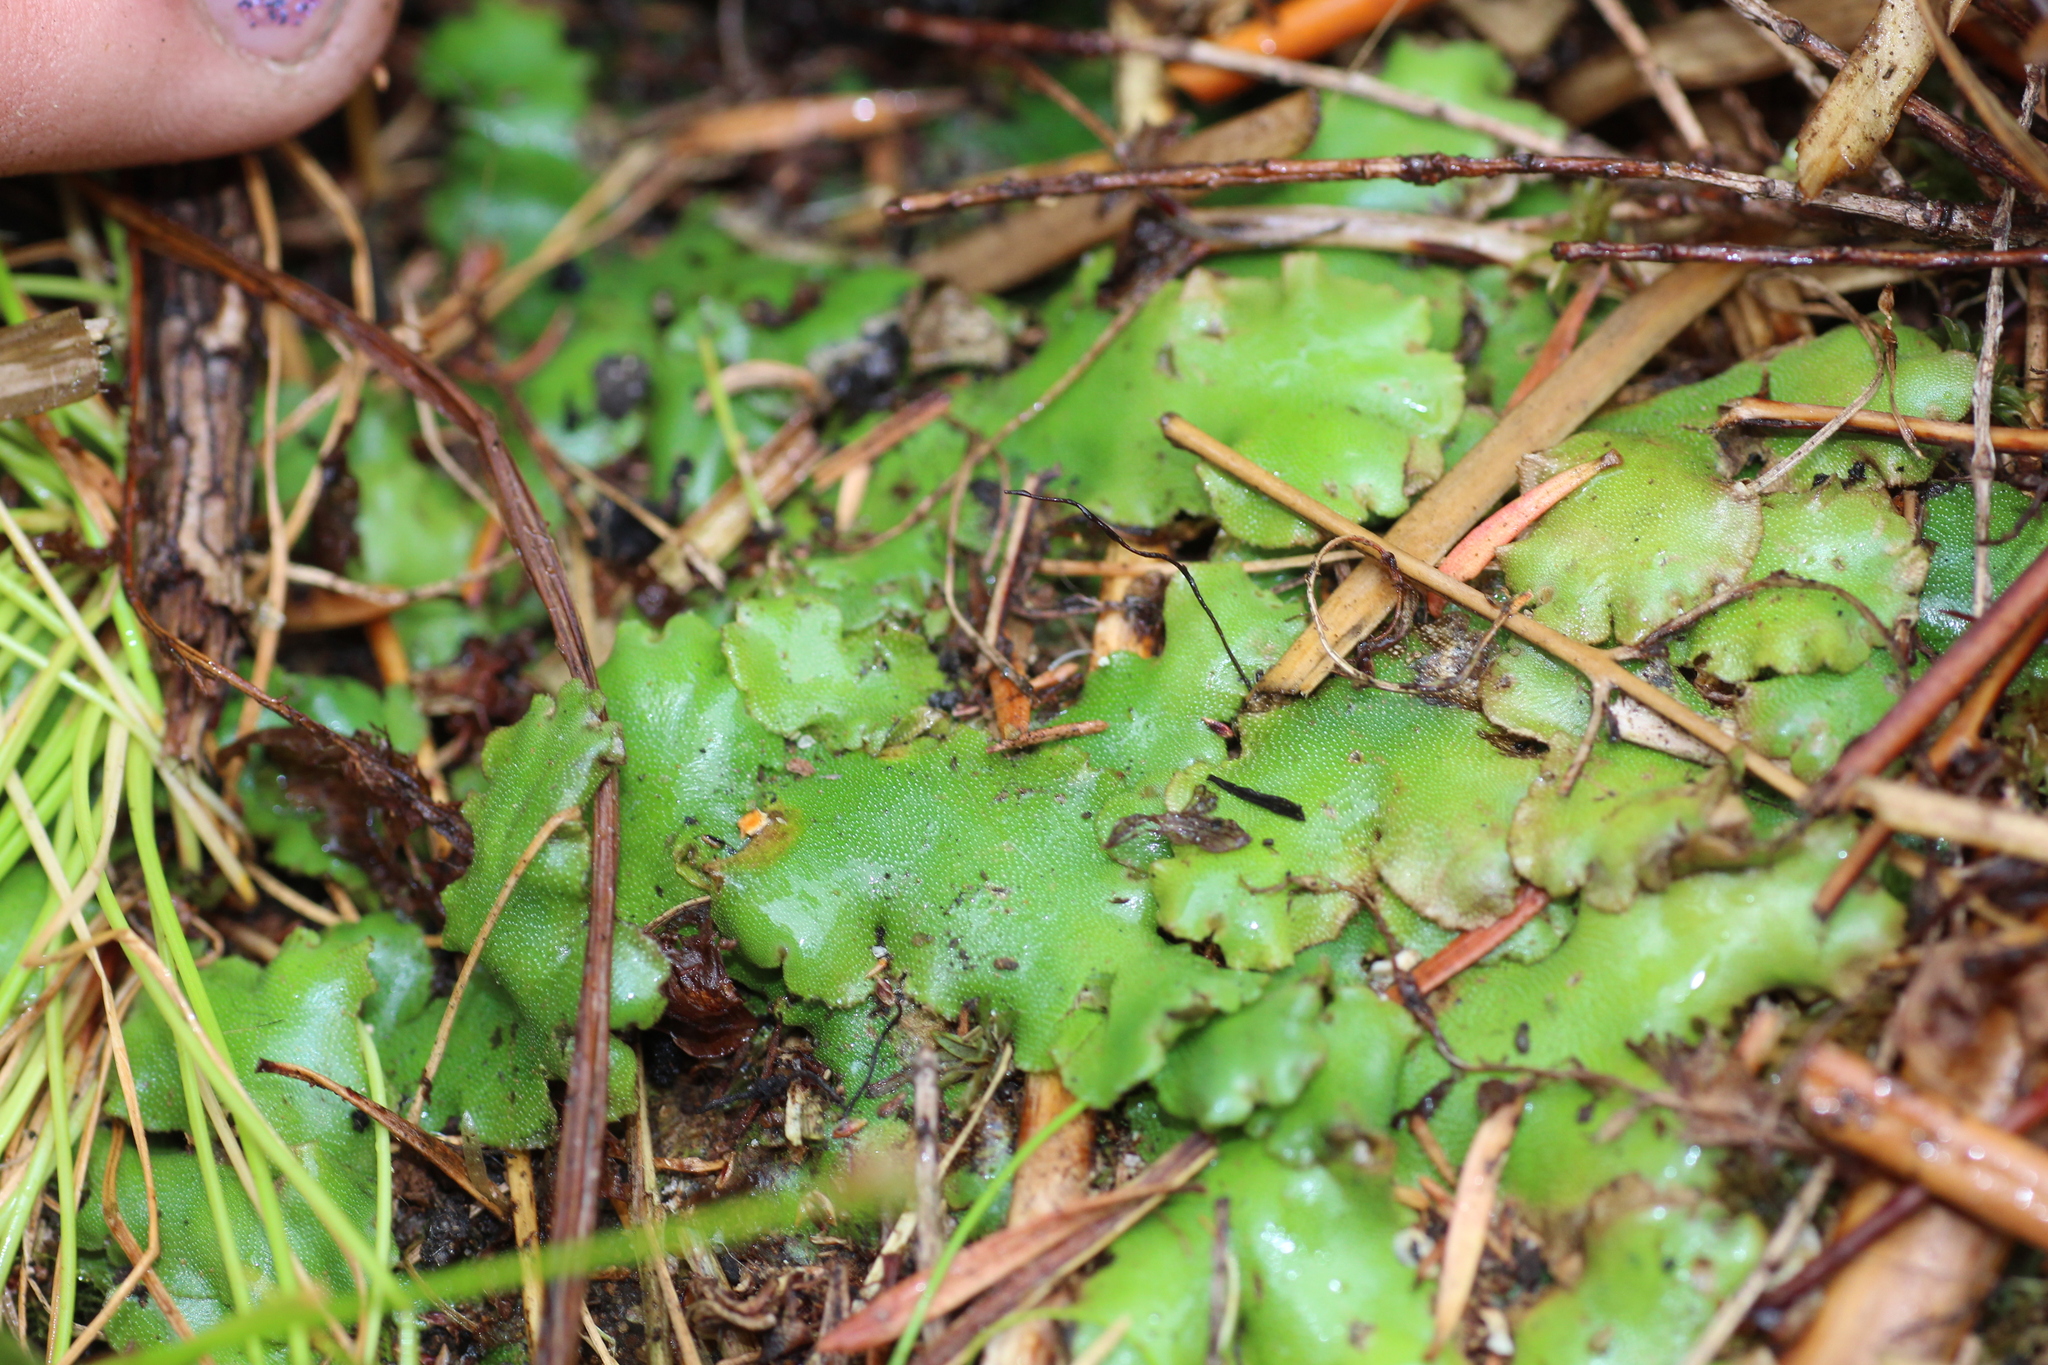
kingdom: Plantae
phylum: Marchantiophyta
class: Marchantiopsida
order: Marchantiales
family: Marchantiaceae
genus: Marchantia
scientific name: Marchantia berteroana
